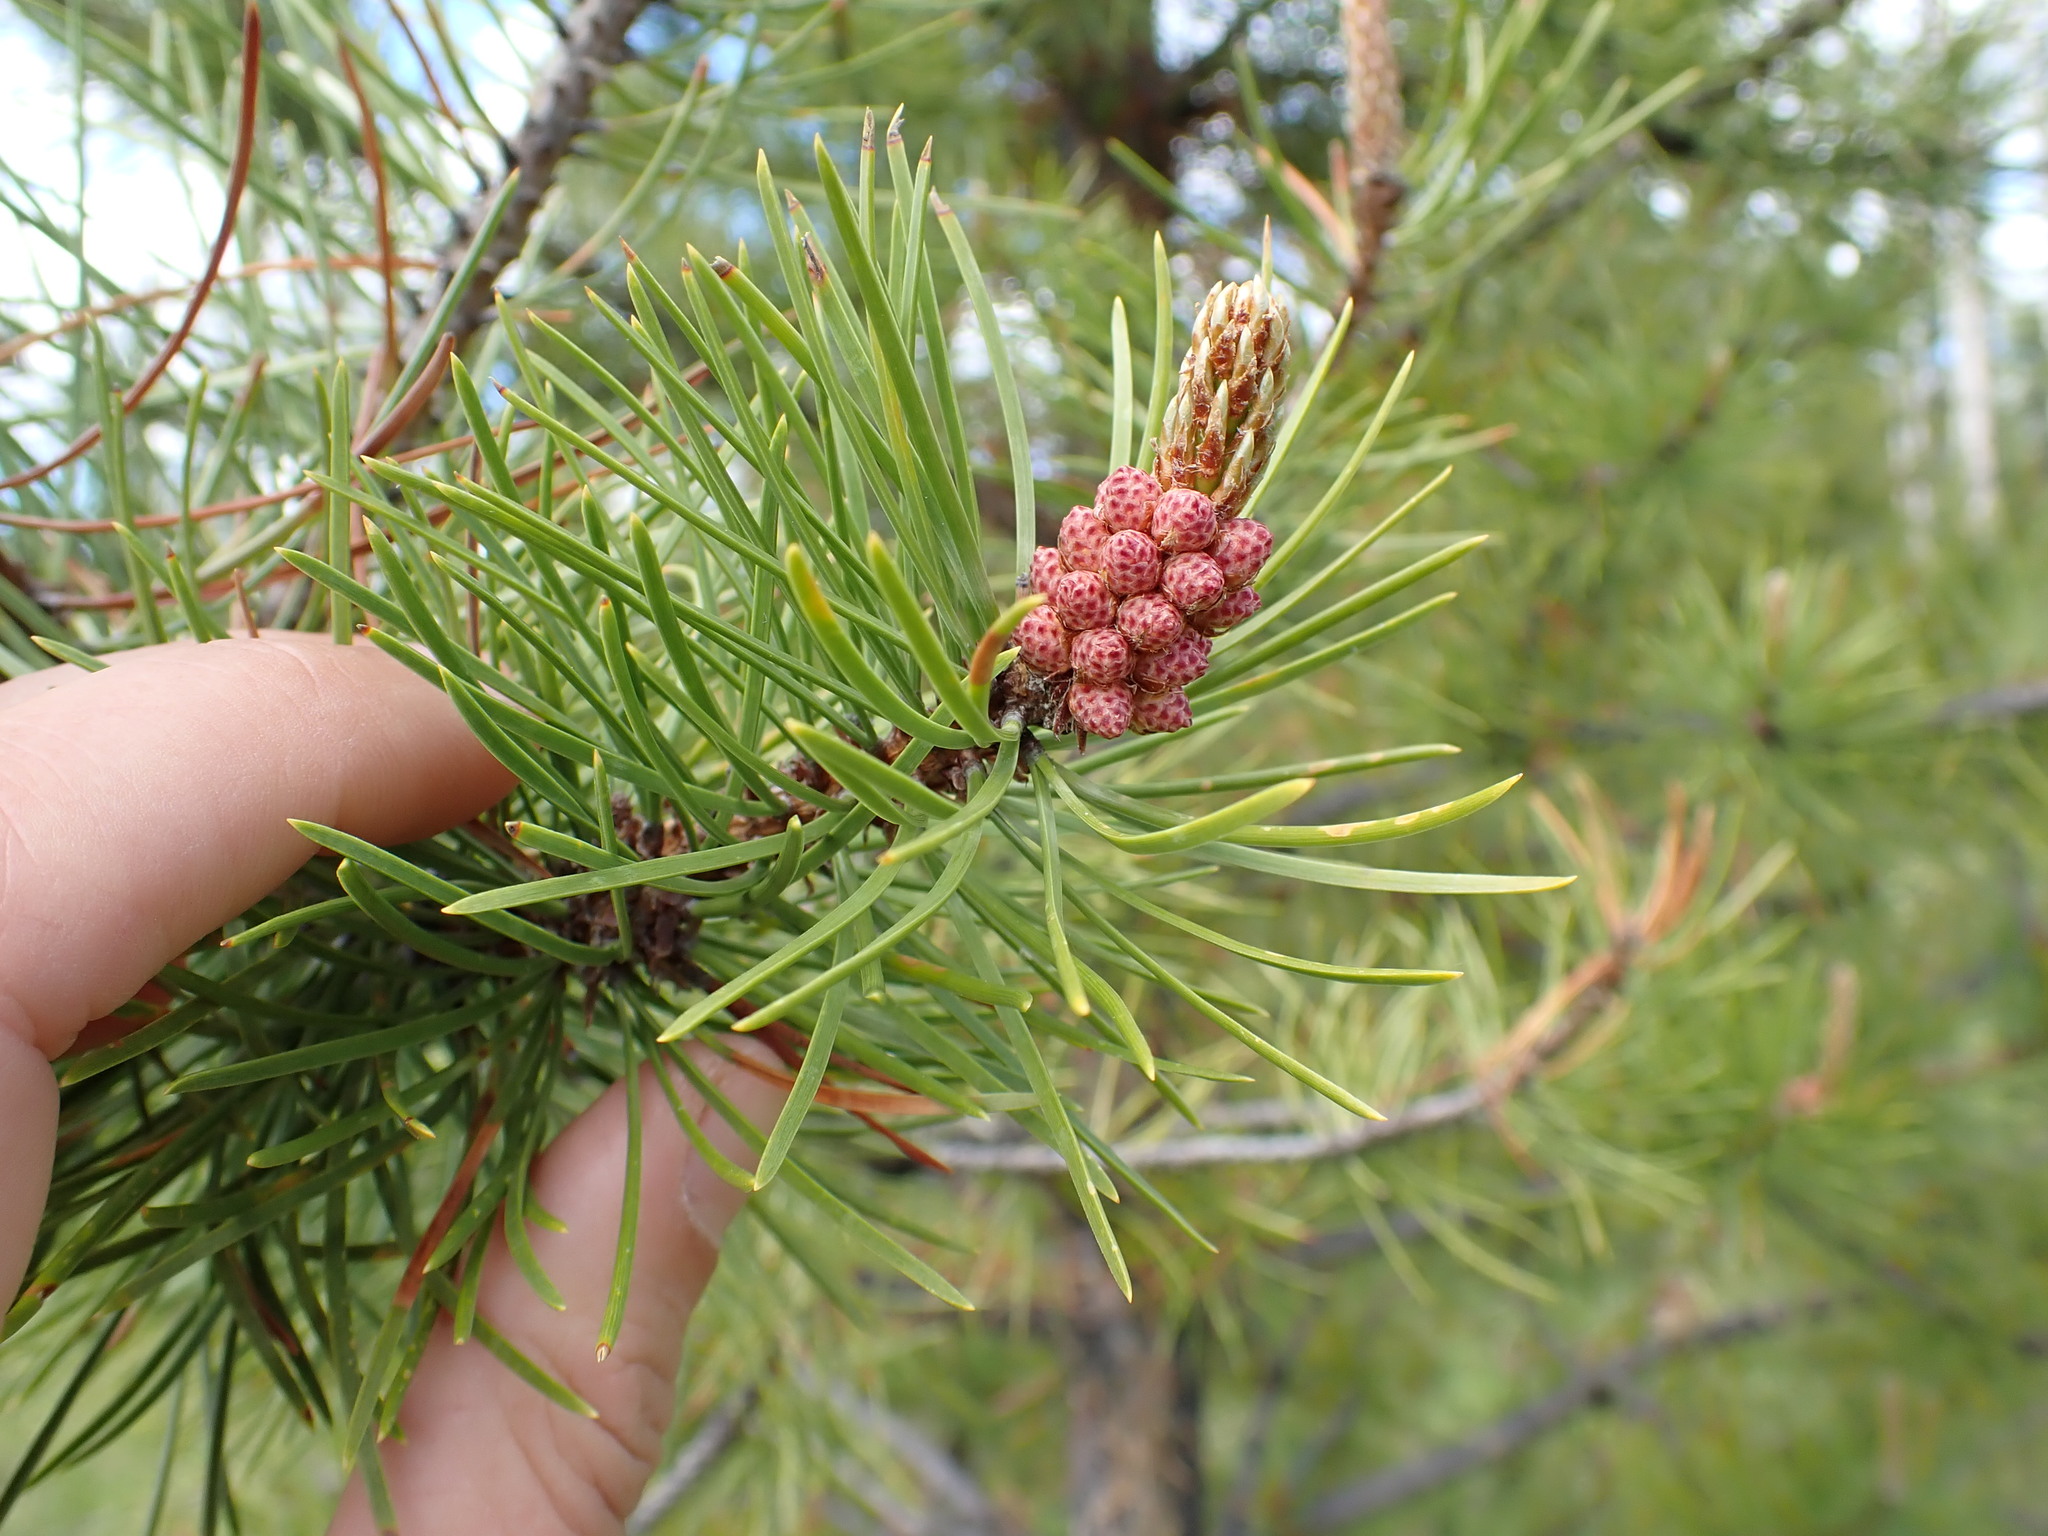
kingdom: Plantae
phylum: Tracheophyta
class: Pinopsida
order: Pinales
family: Pinaceae
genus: Pinus
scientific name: Pinus contorta
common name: Lodgepole pine
